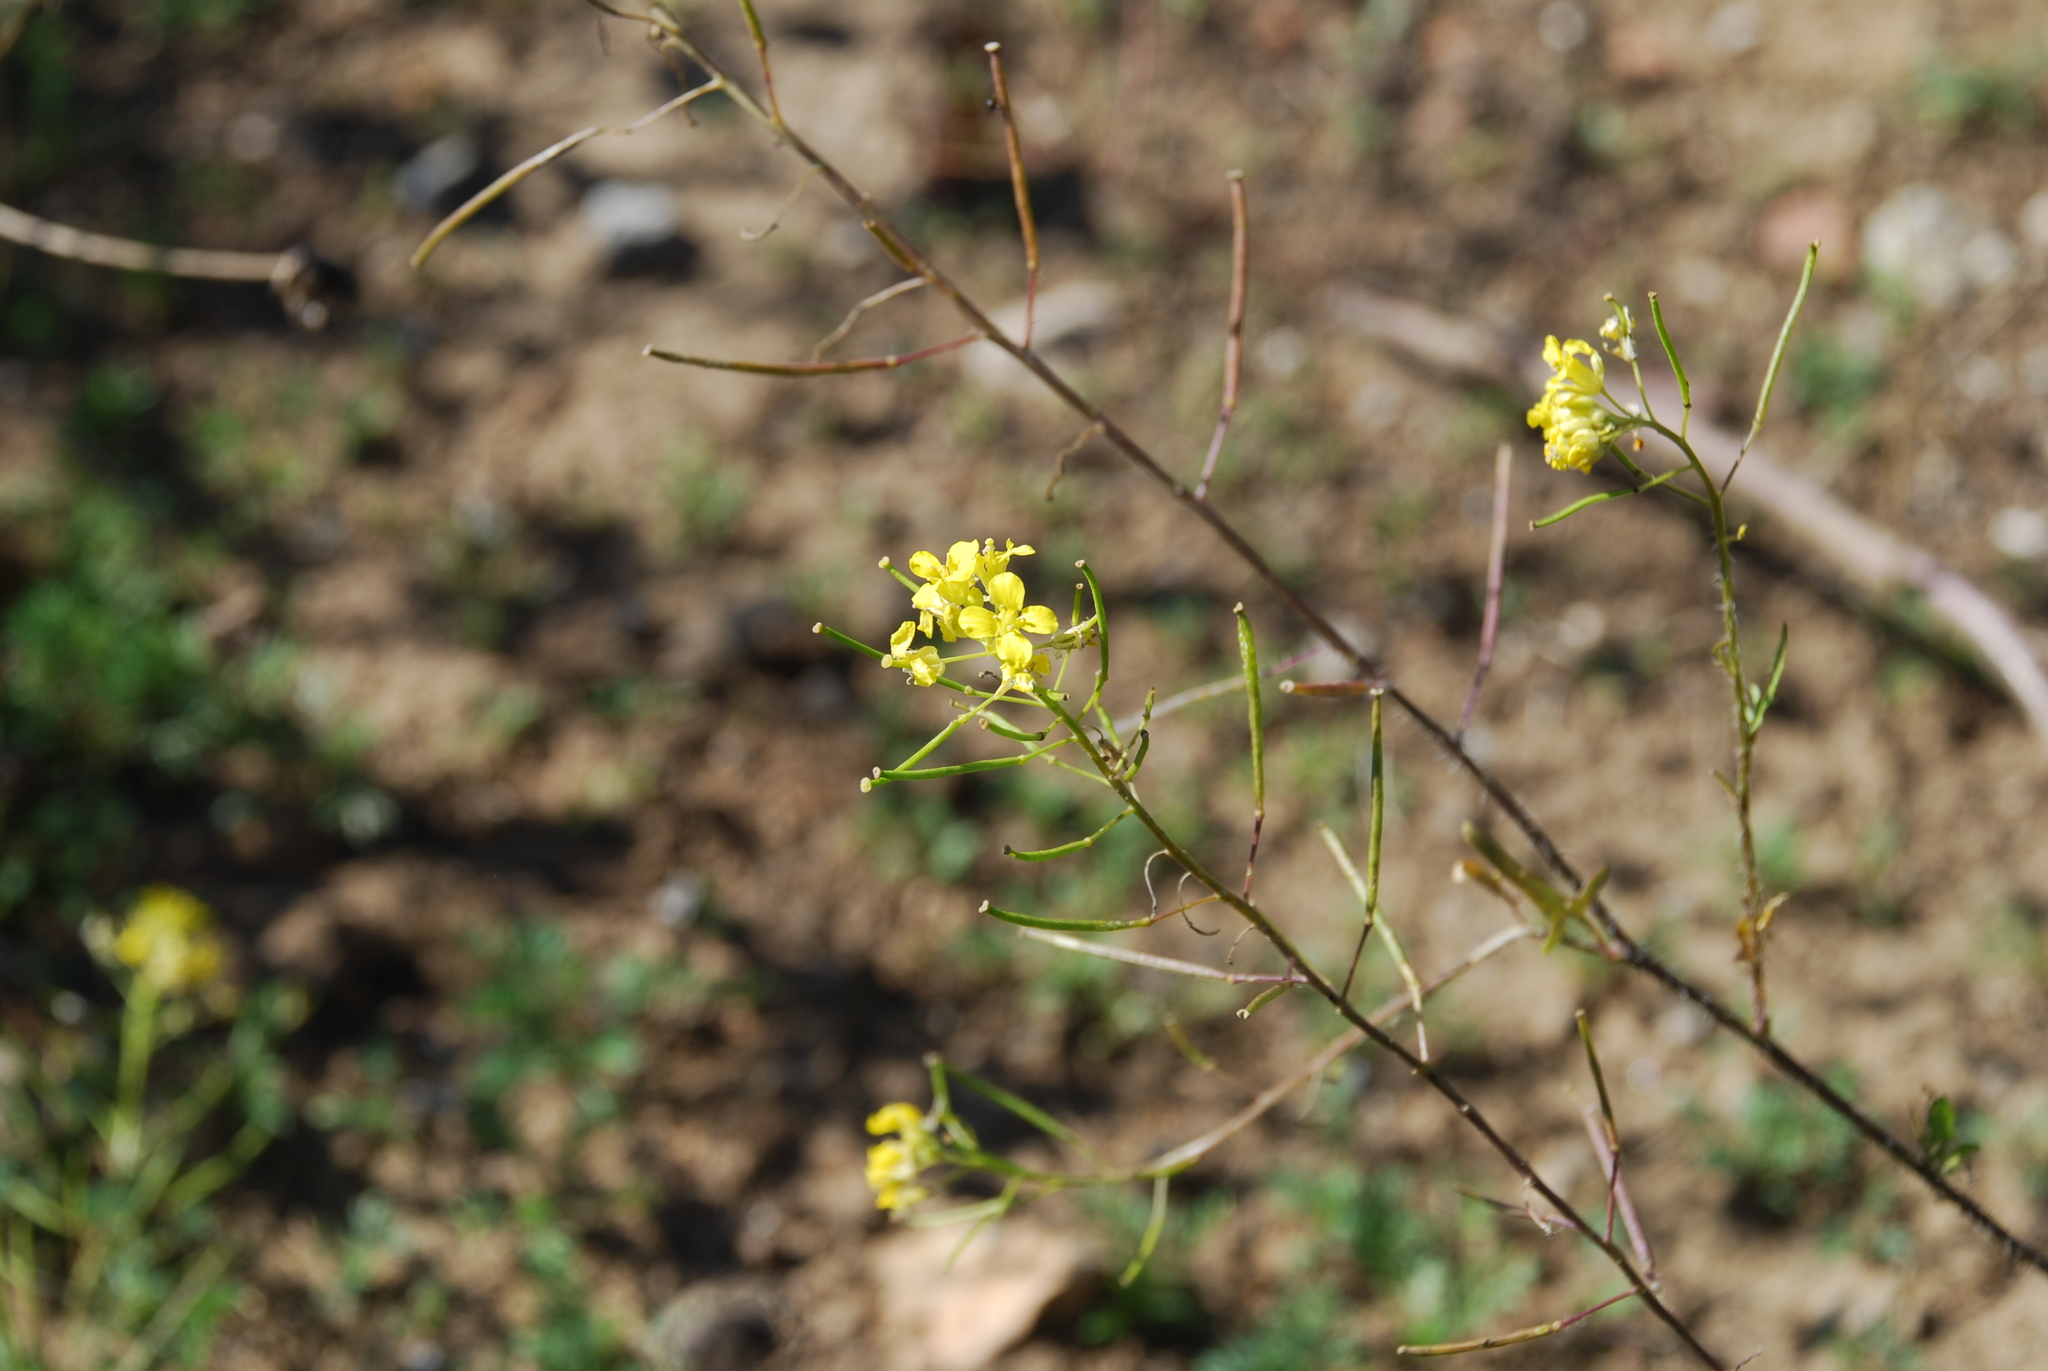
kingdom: Plantae
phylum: Tracheophyta
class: Magnoliopsida
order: Brassicales
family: Brassicaceae
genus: Sisymbrium
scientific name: Sisymbrium loeselii
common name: False london-rocket
